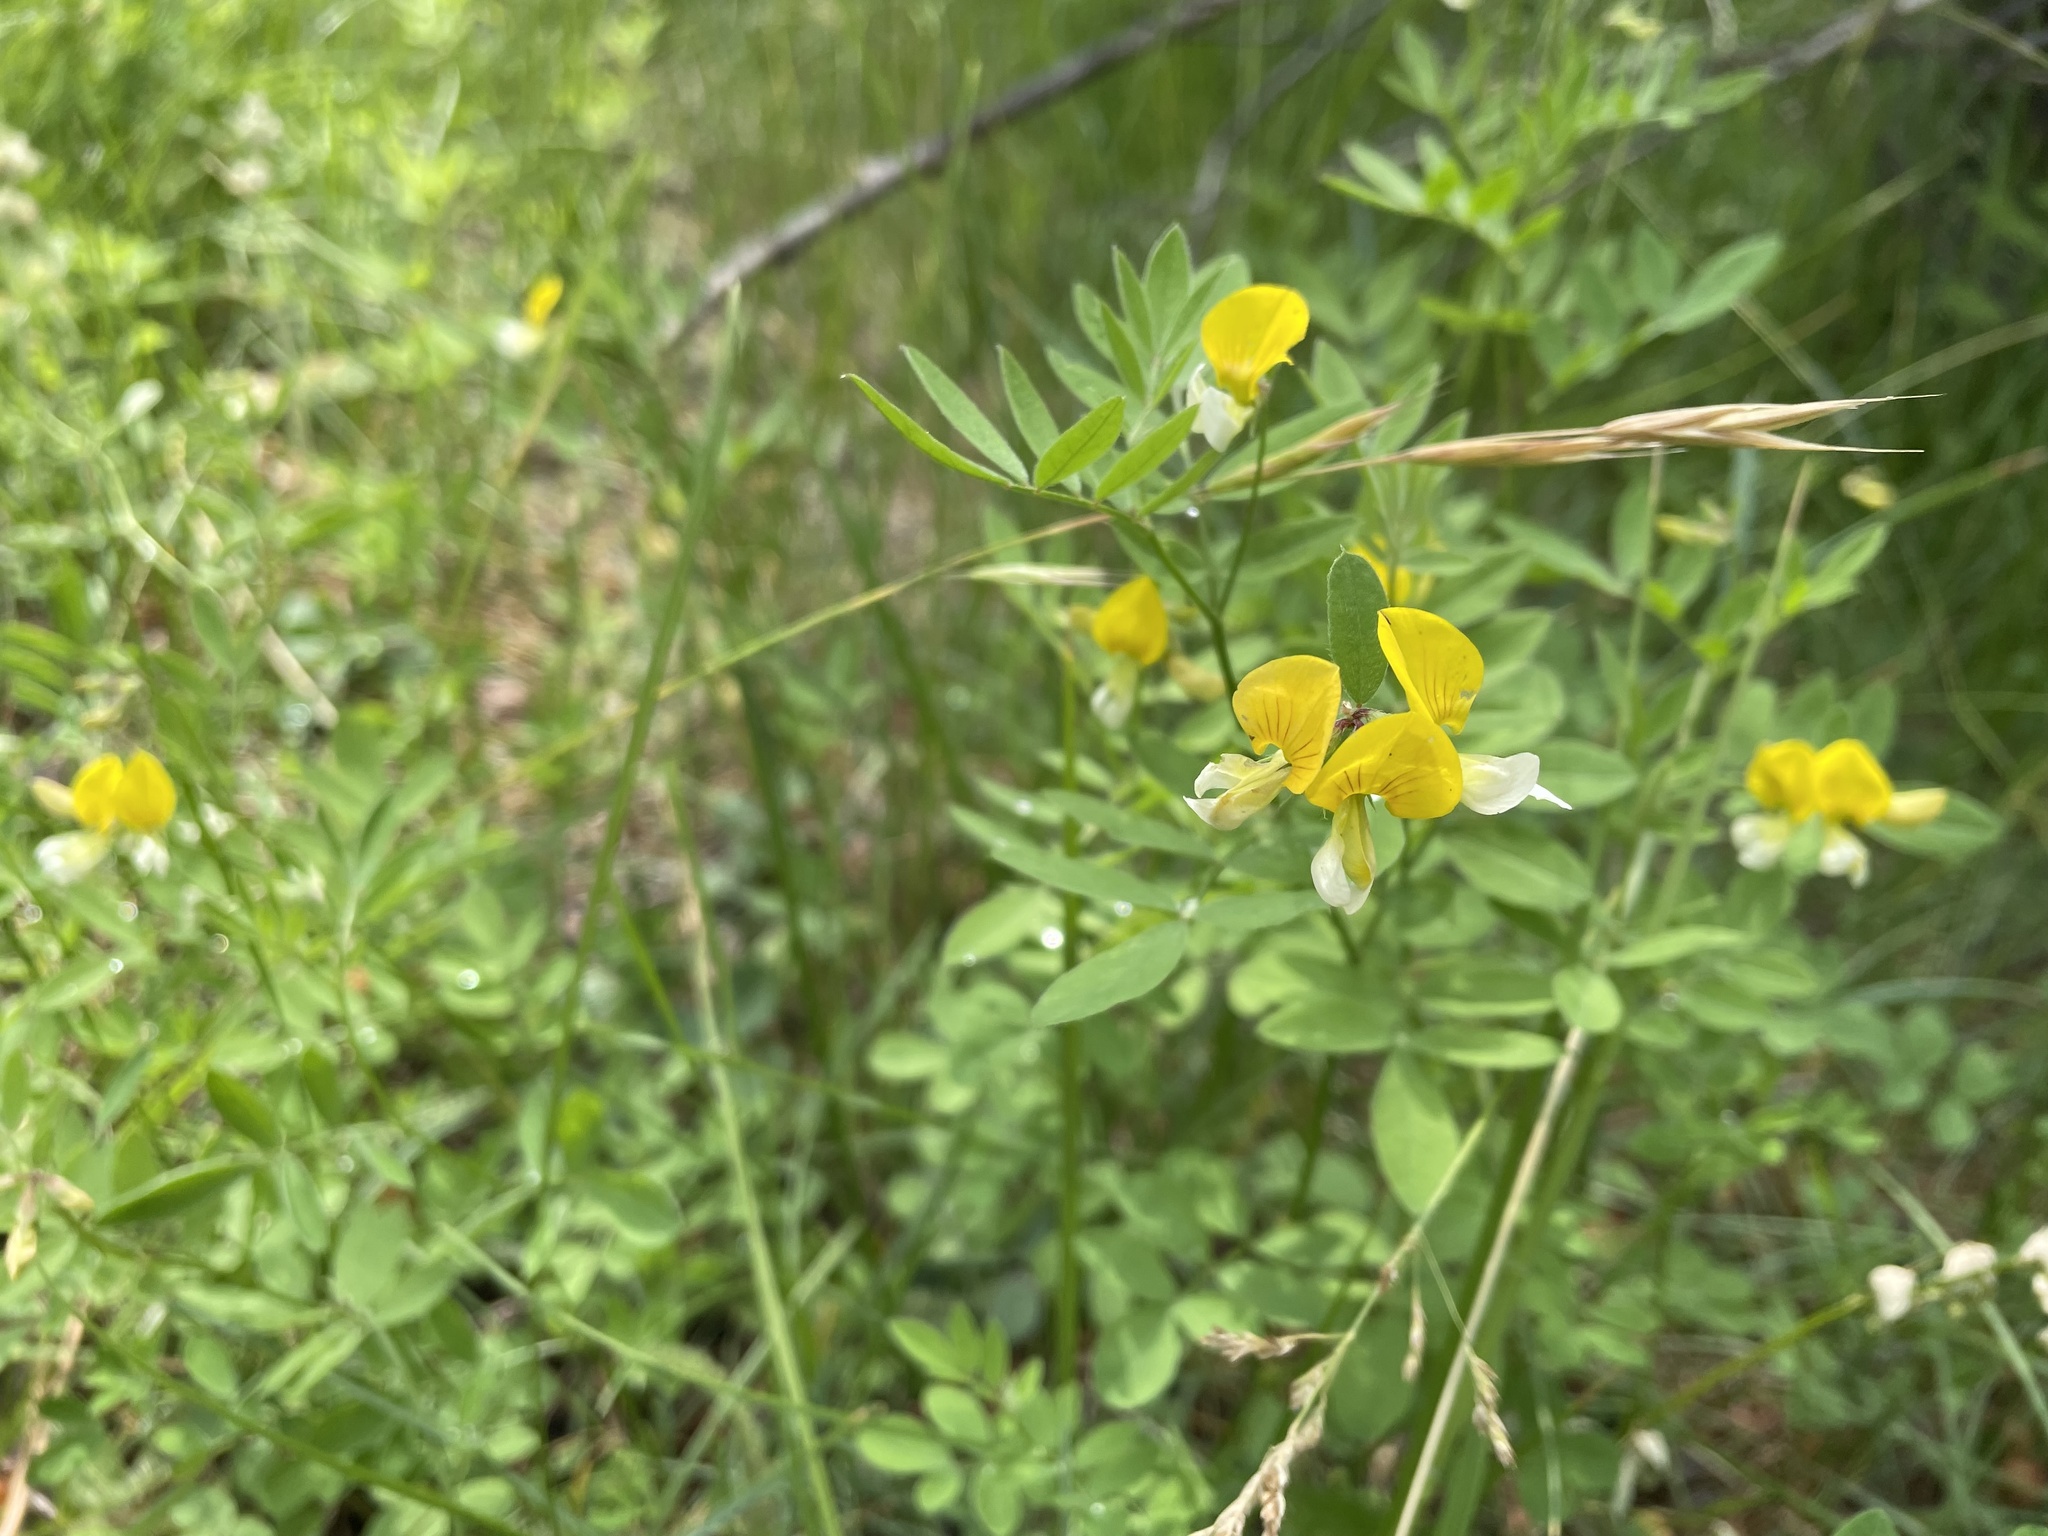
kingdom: Plantae
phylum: Tracheophyta
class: Magnoliopsida
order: Fabales
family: Fabaceae
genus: Hosackia
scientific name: Hosackia oblongifolia
